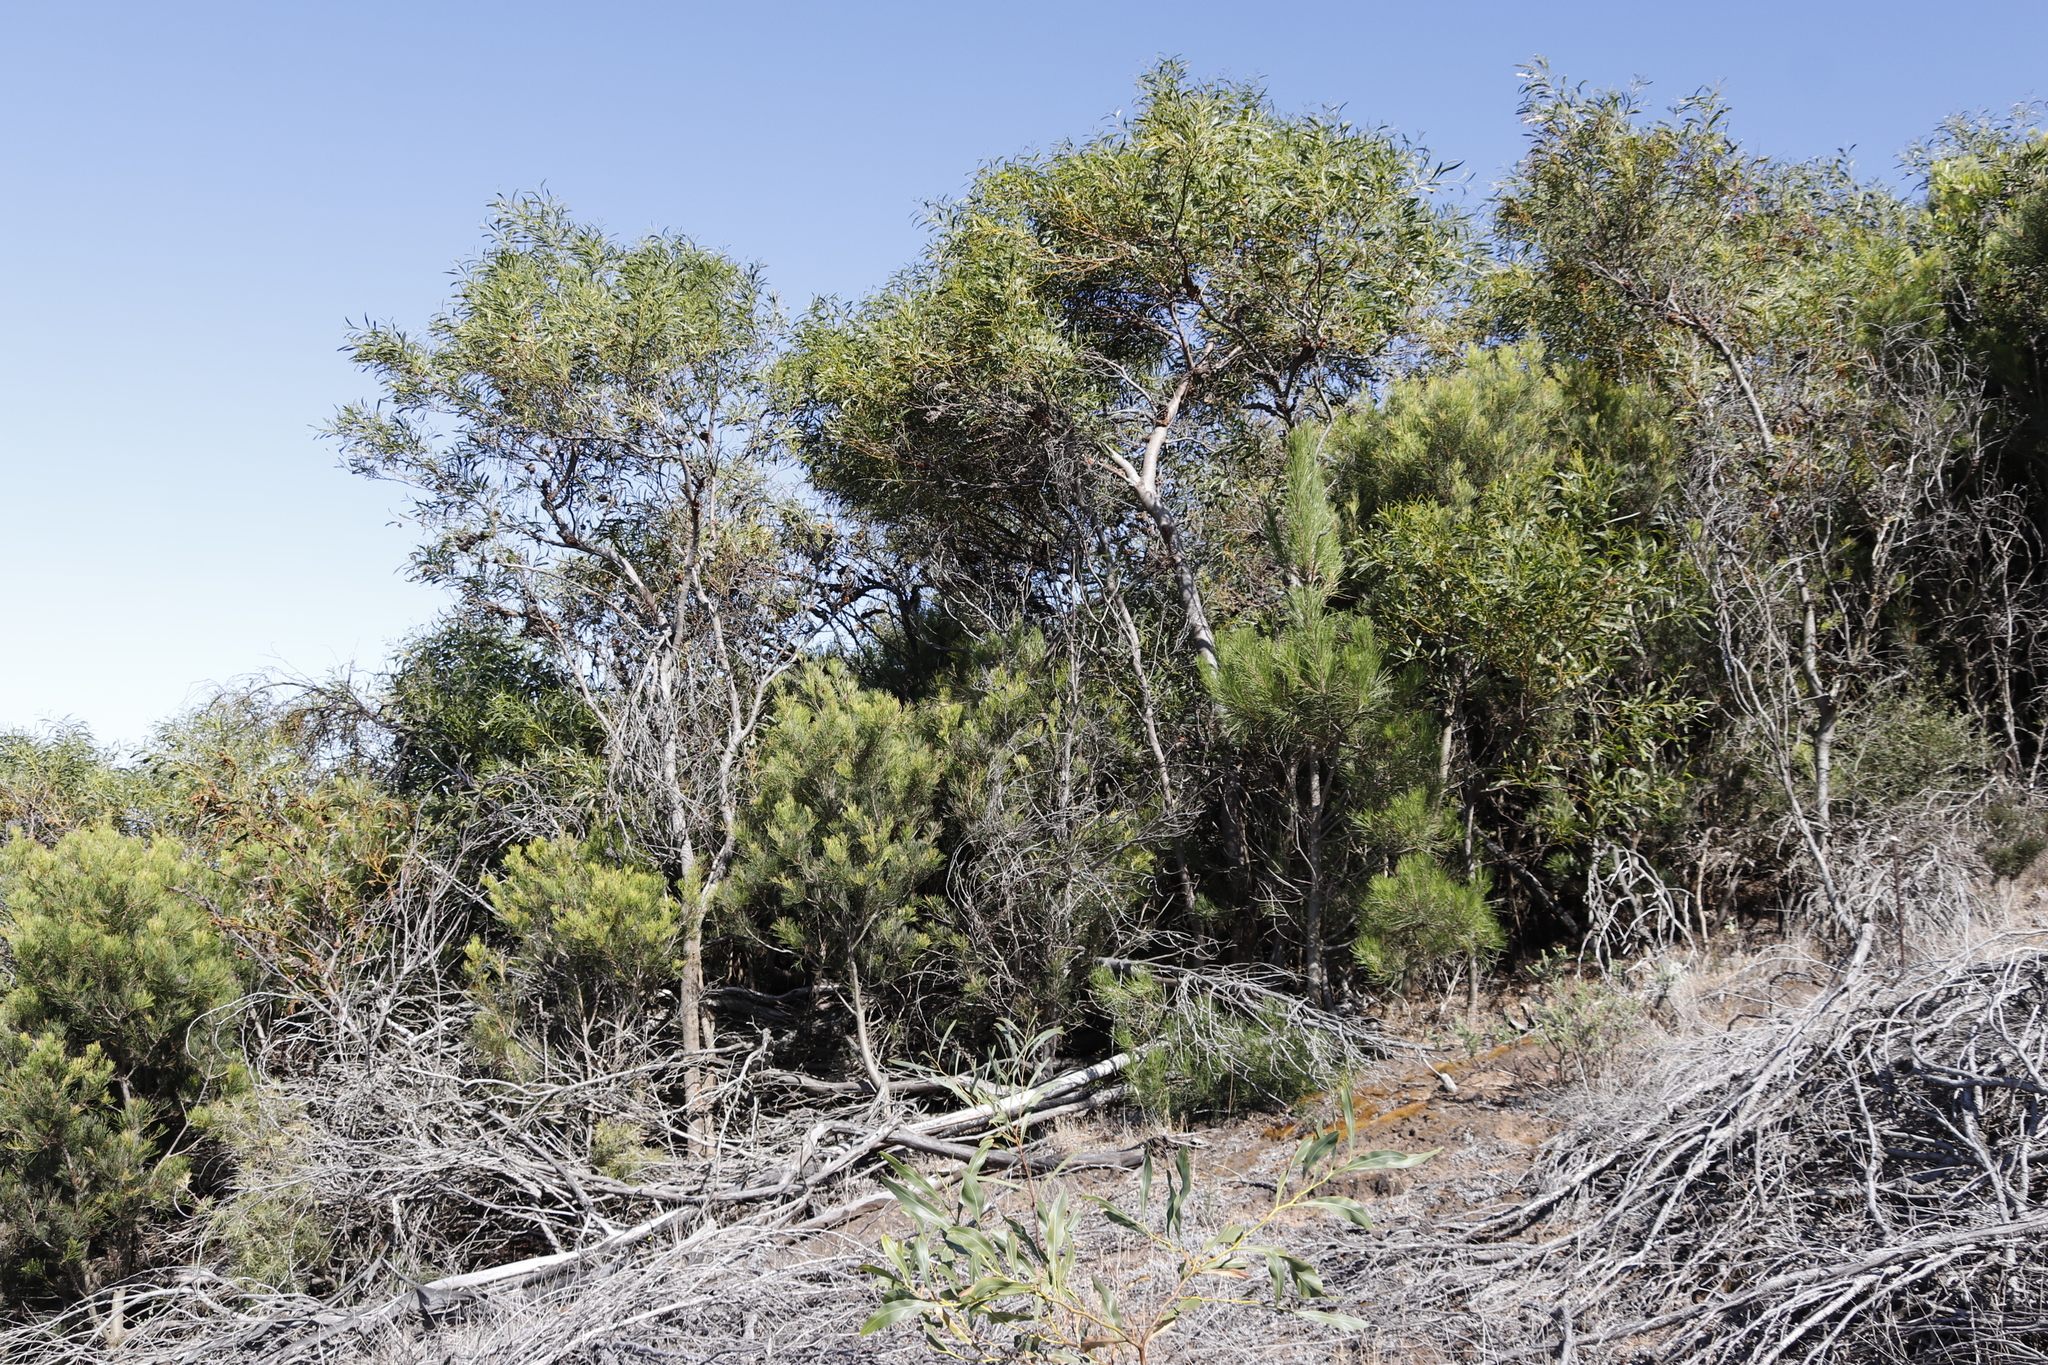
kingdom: Plantae
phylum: Tracheophyta
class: Magnoliopsida
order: Proteales
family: Proteaceae
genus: Hakea
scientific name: Hakea drupacea
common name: Sweet hakea
